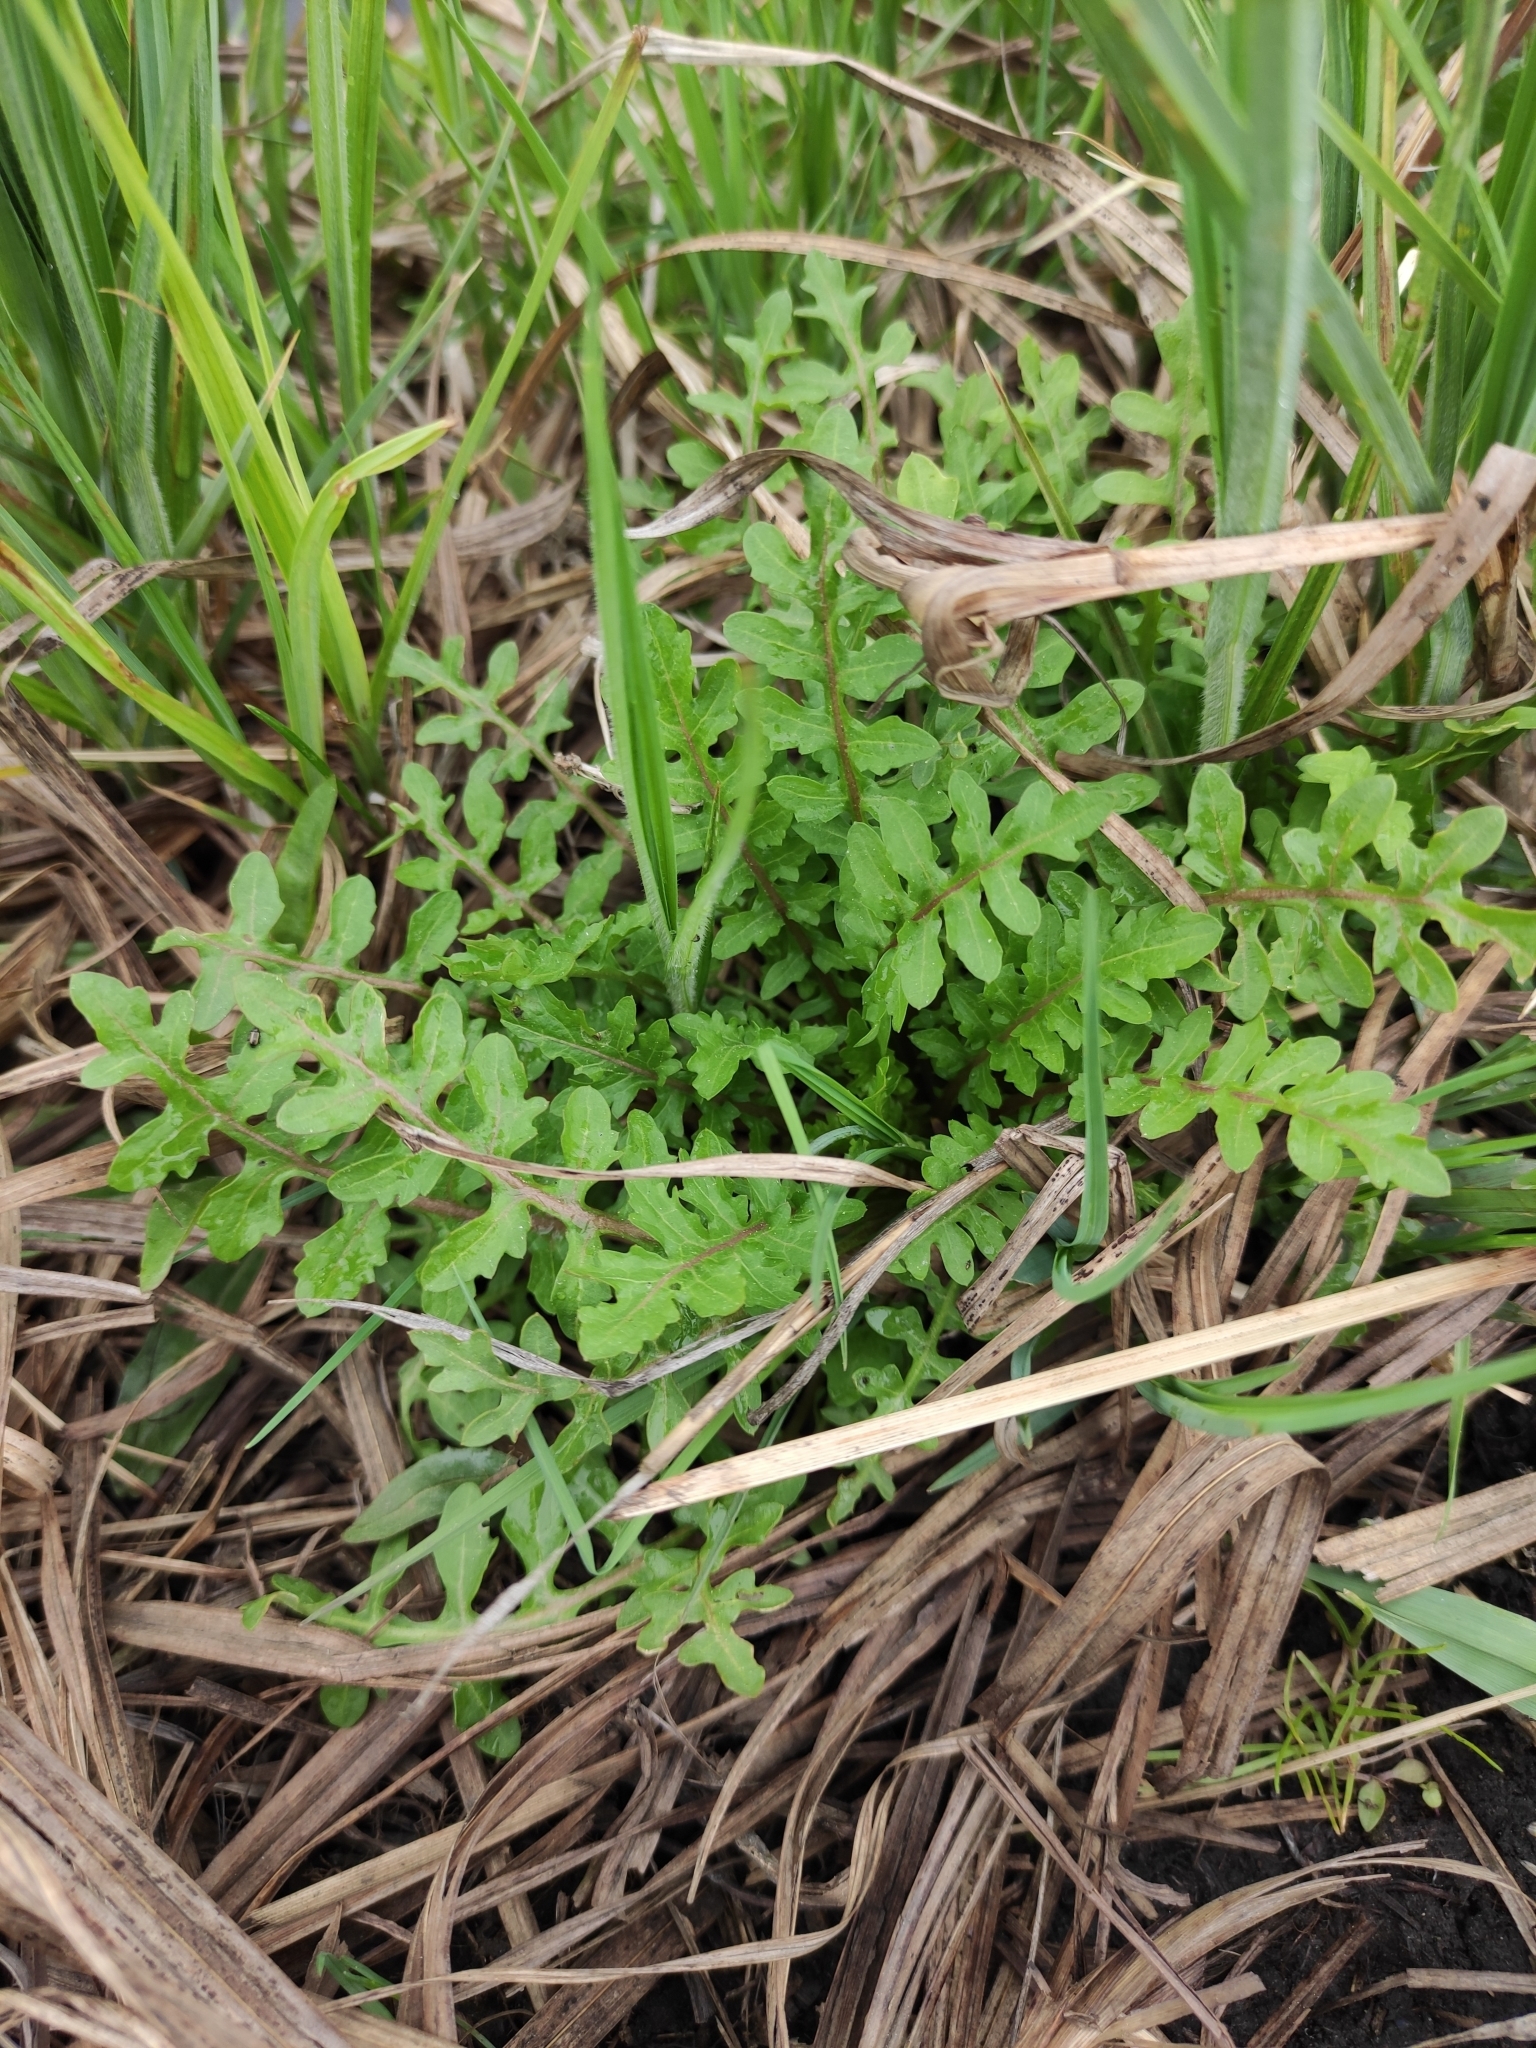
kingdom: Plantae
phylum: Tracheophyta
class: Magnoliopsida
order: Brassicales
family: Brassicaceae
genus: Rorippa
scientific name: Rorippa palustris
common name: Marsh yellow-cress
